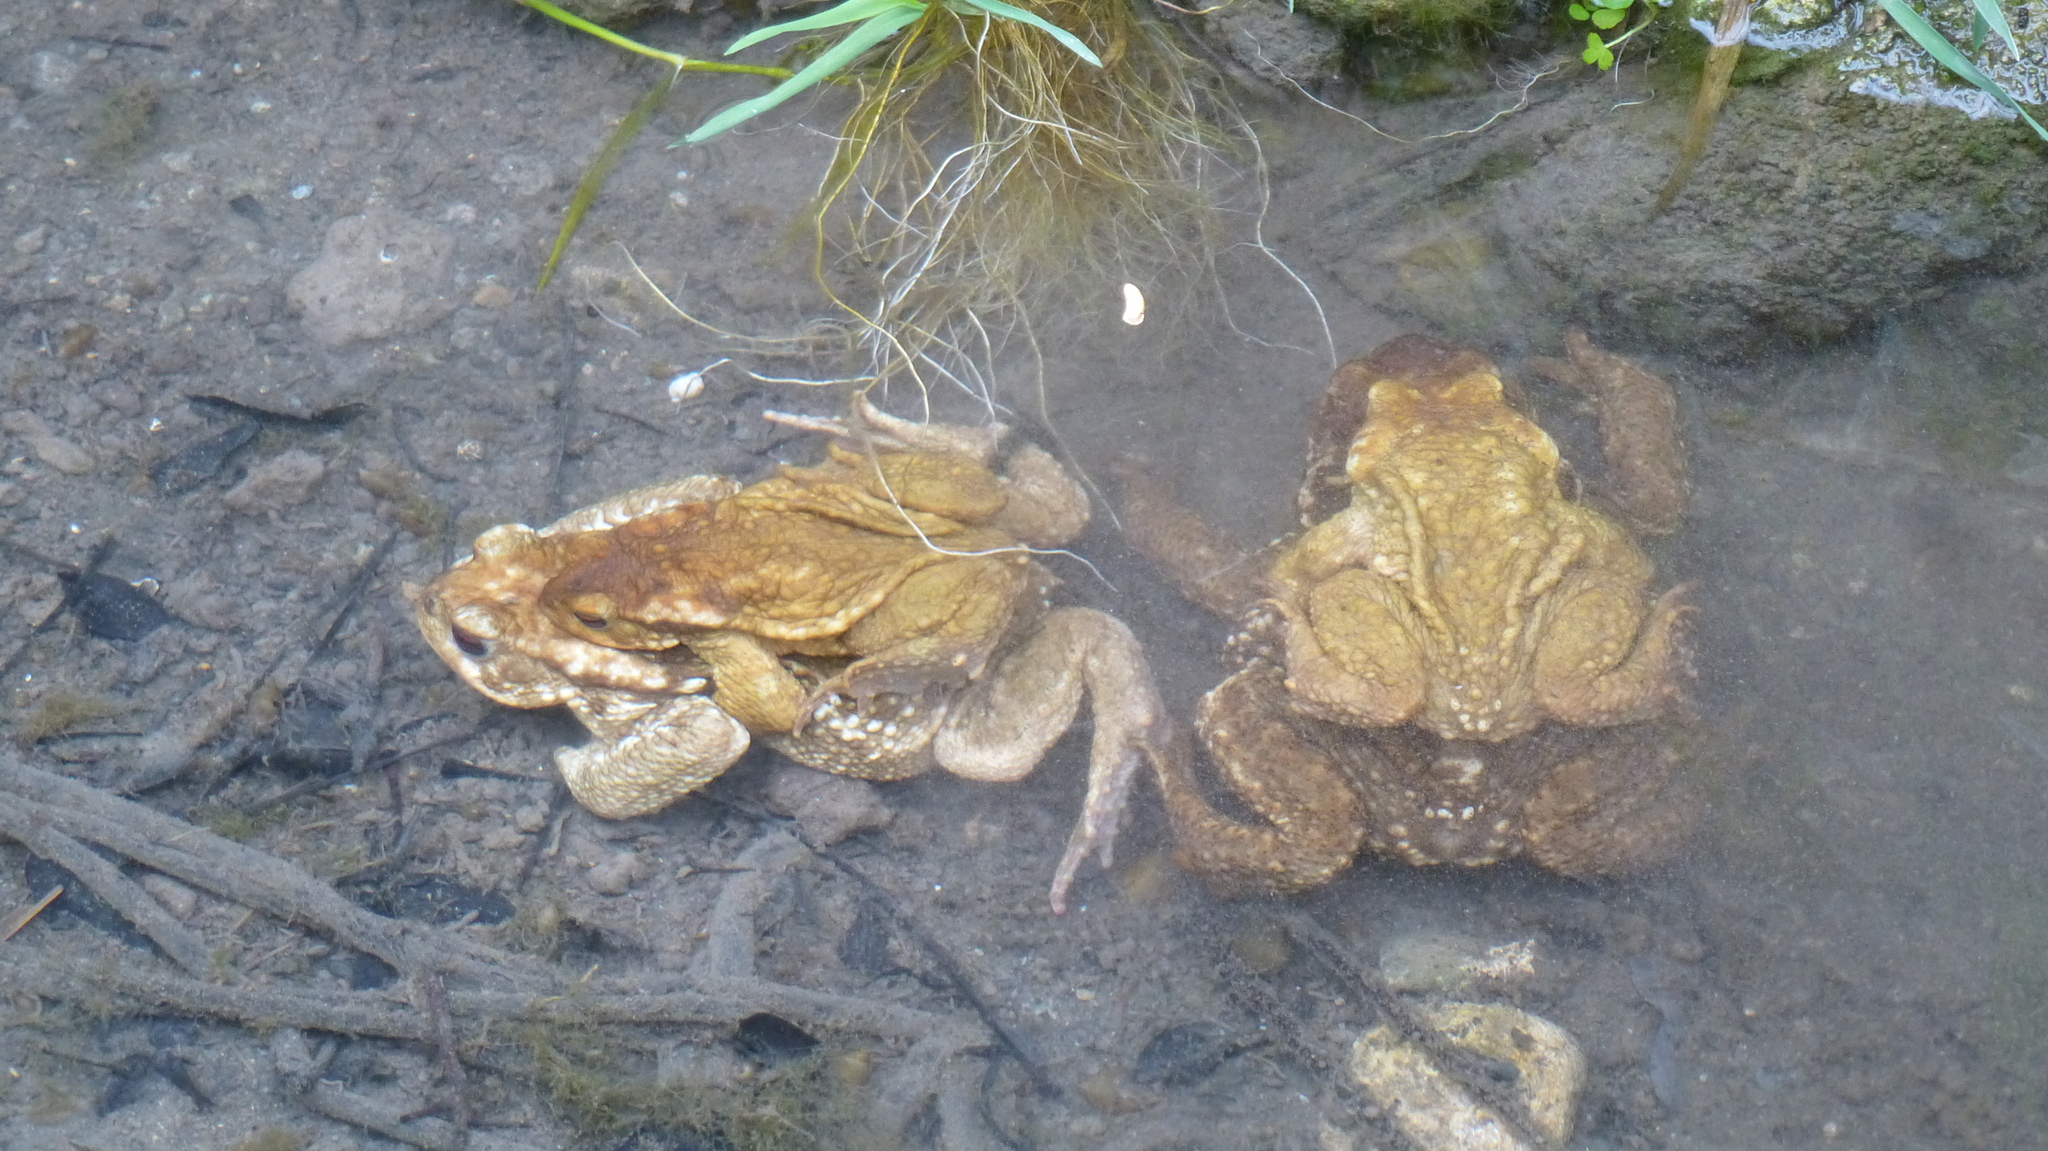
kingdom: Animalia
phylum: Chordata
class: Amphibia
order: Anura
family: Bufonidae
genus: Bufo
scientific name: Bufo spinosus
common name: Western common toad
